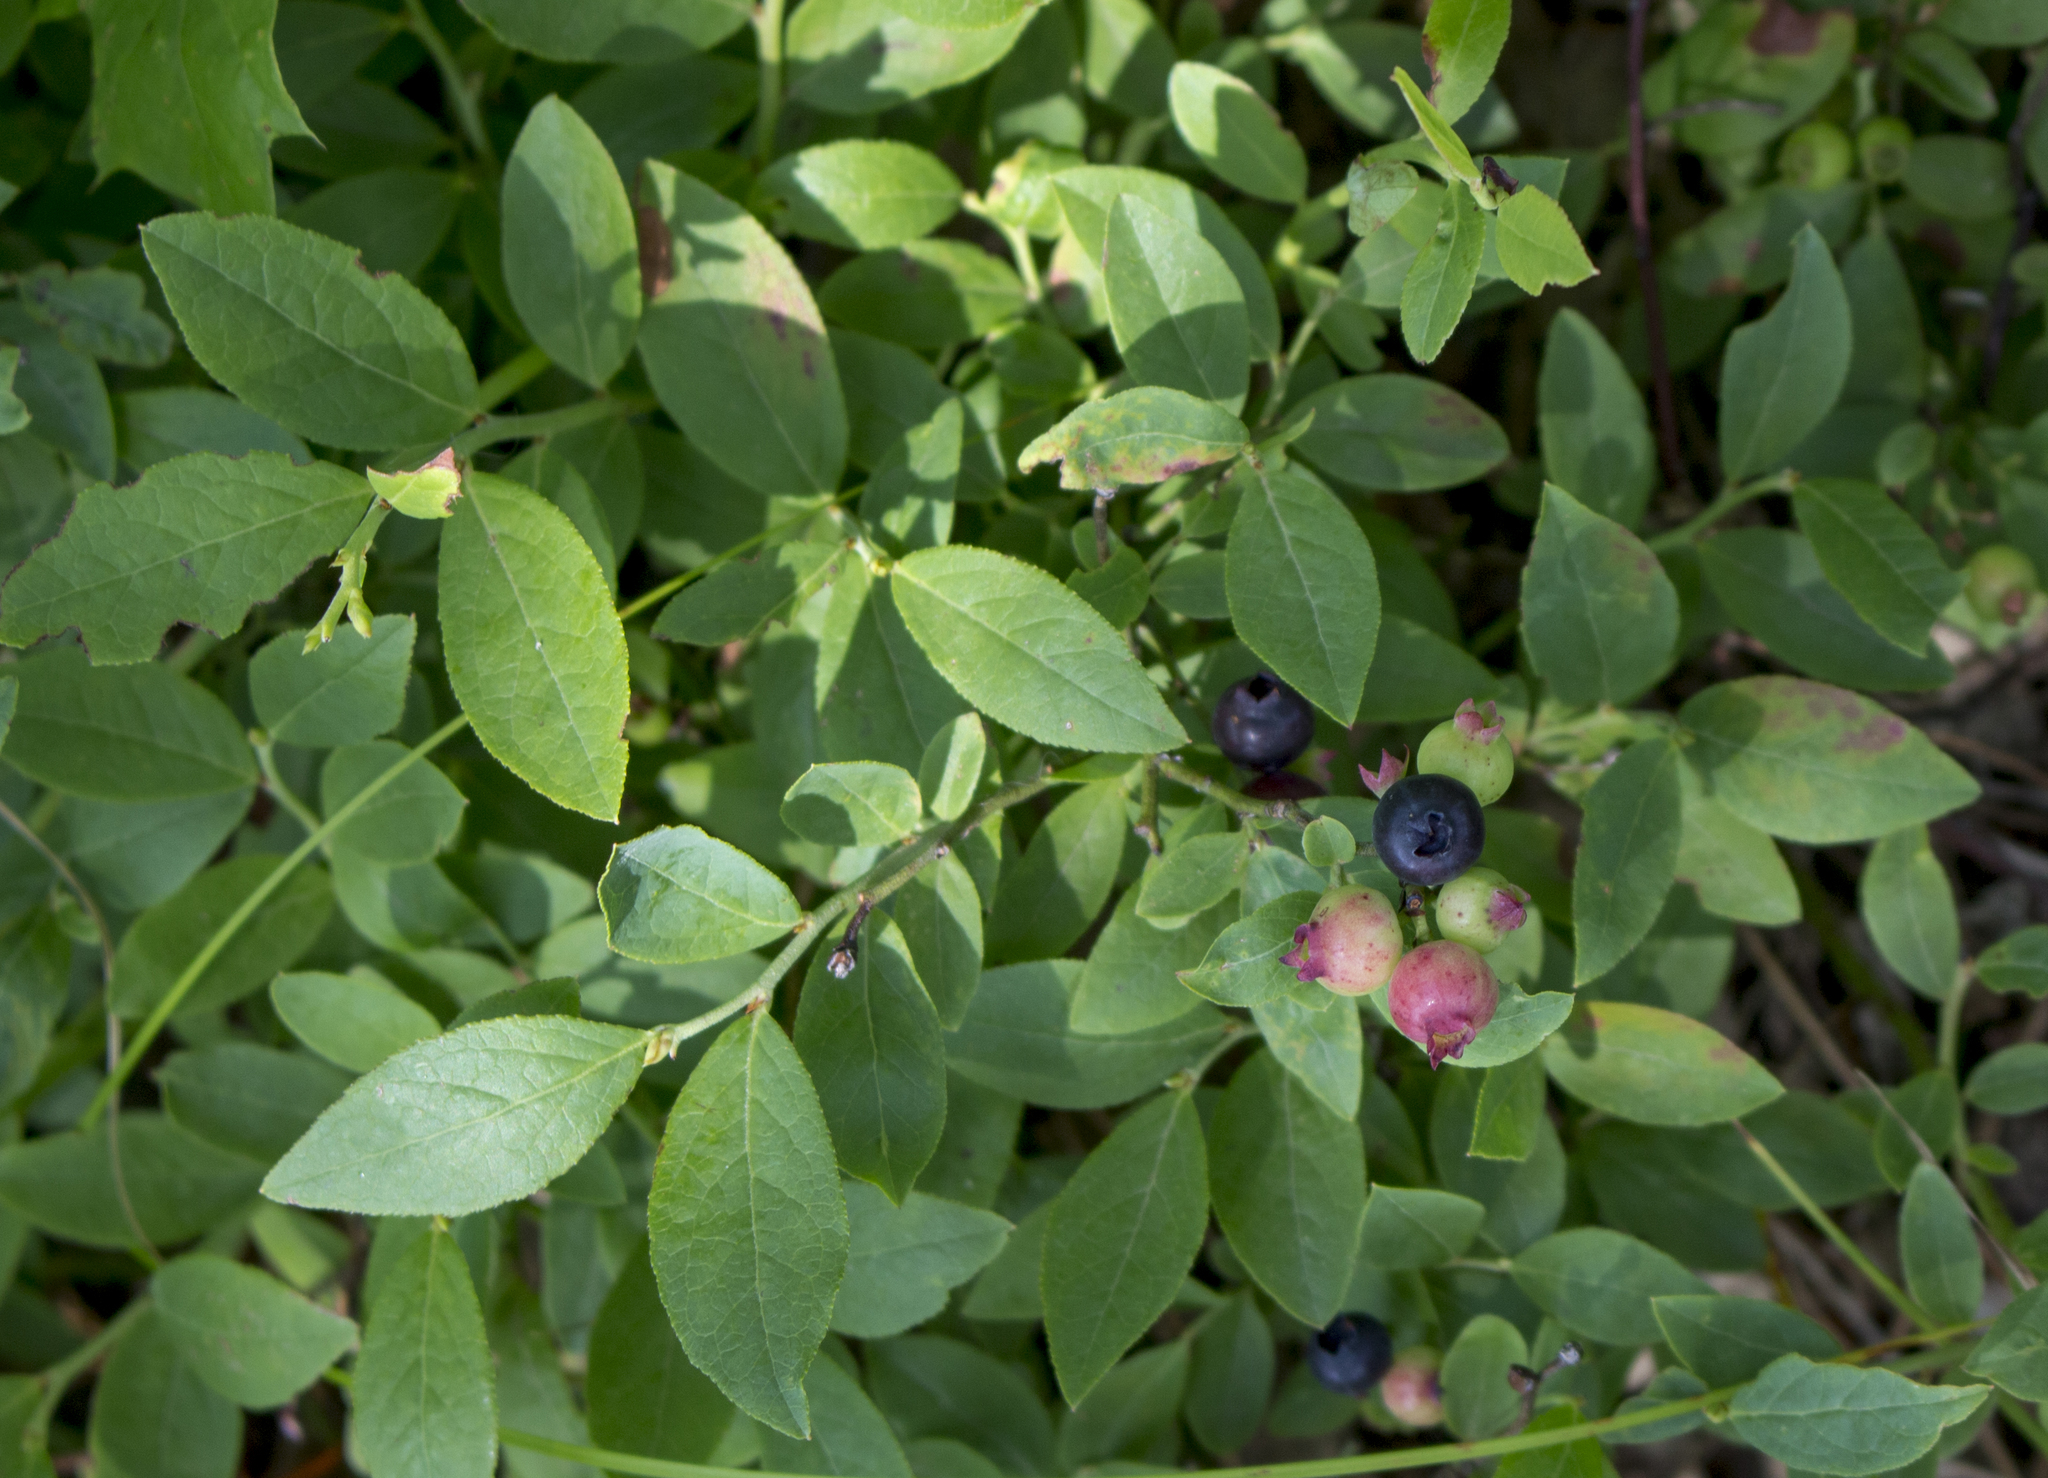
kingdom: Plantae
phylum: Tracheophyta
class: Magnoliopsida
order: Ericales
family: Ericaceae
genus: Vaccinium
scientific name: Vaccinium angustifolium
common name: Early lowbush blueberry
